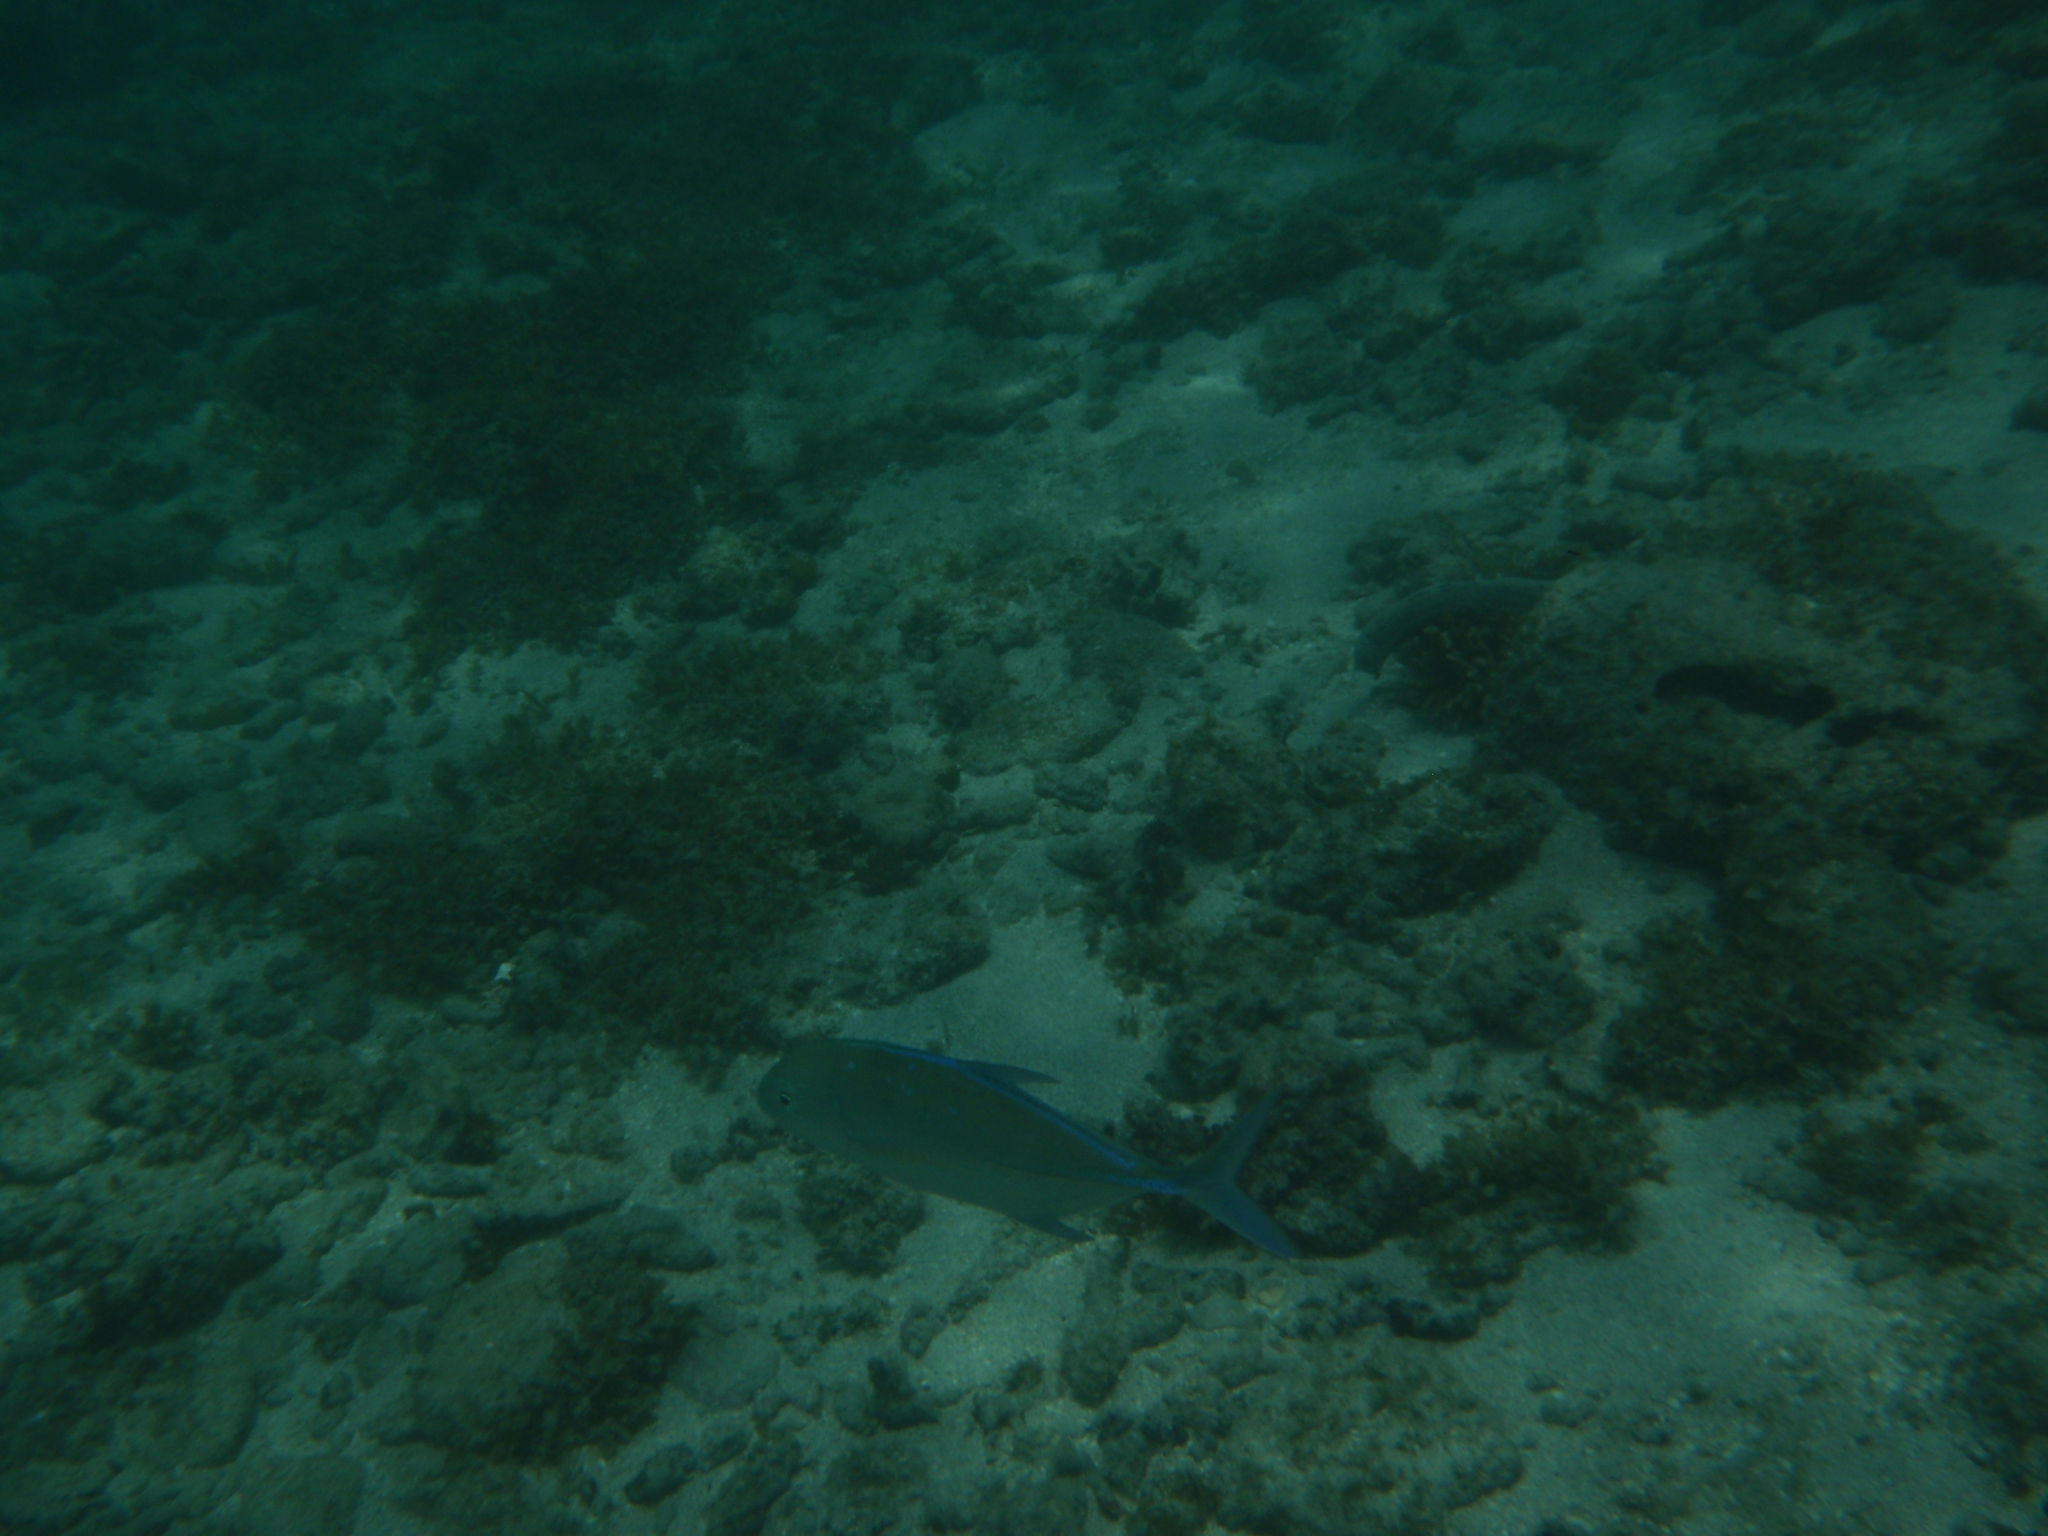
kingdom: Animalia
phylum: Chordata
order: Perciformes
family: Carangidae
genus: Caranx
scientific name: Caranx melampygus
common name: Bluefin trevally
